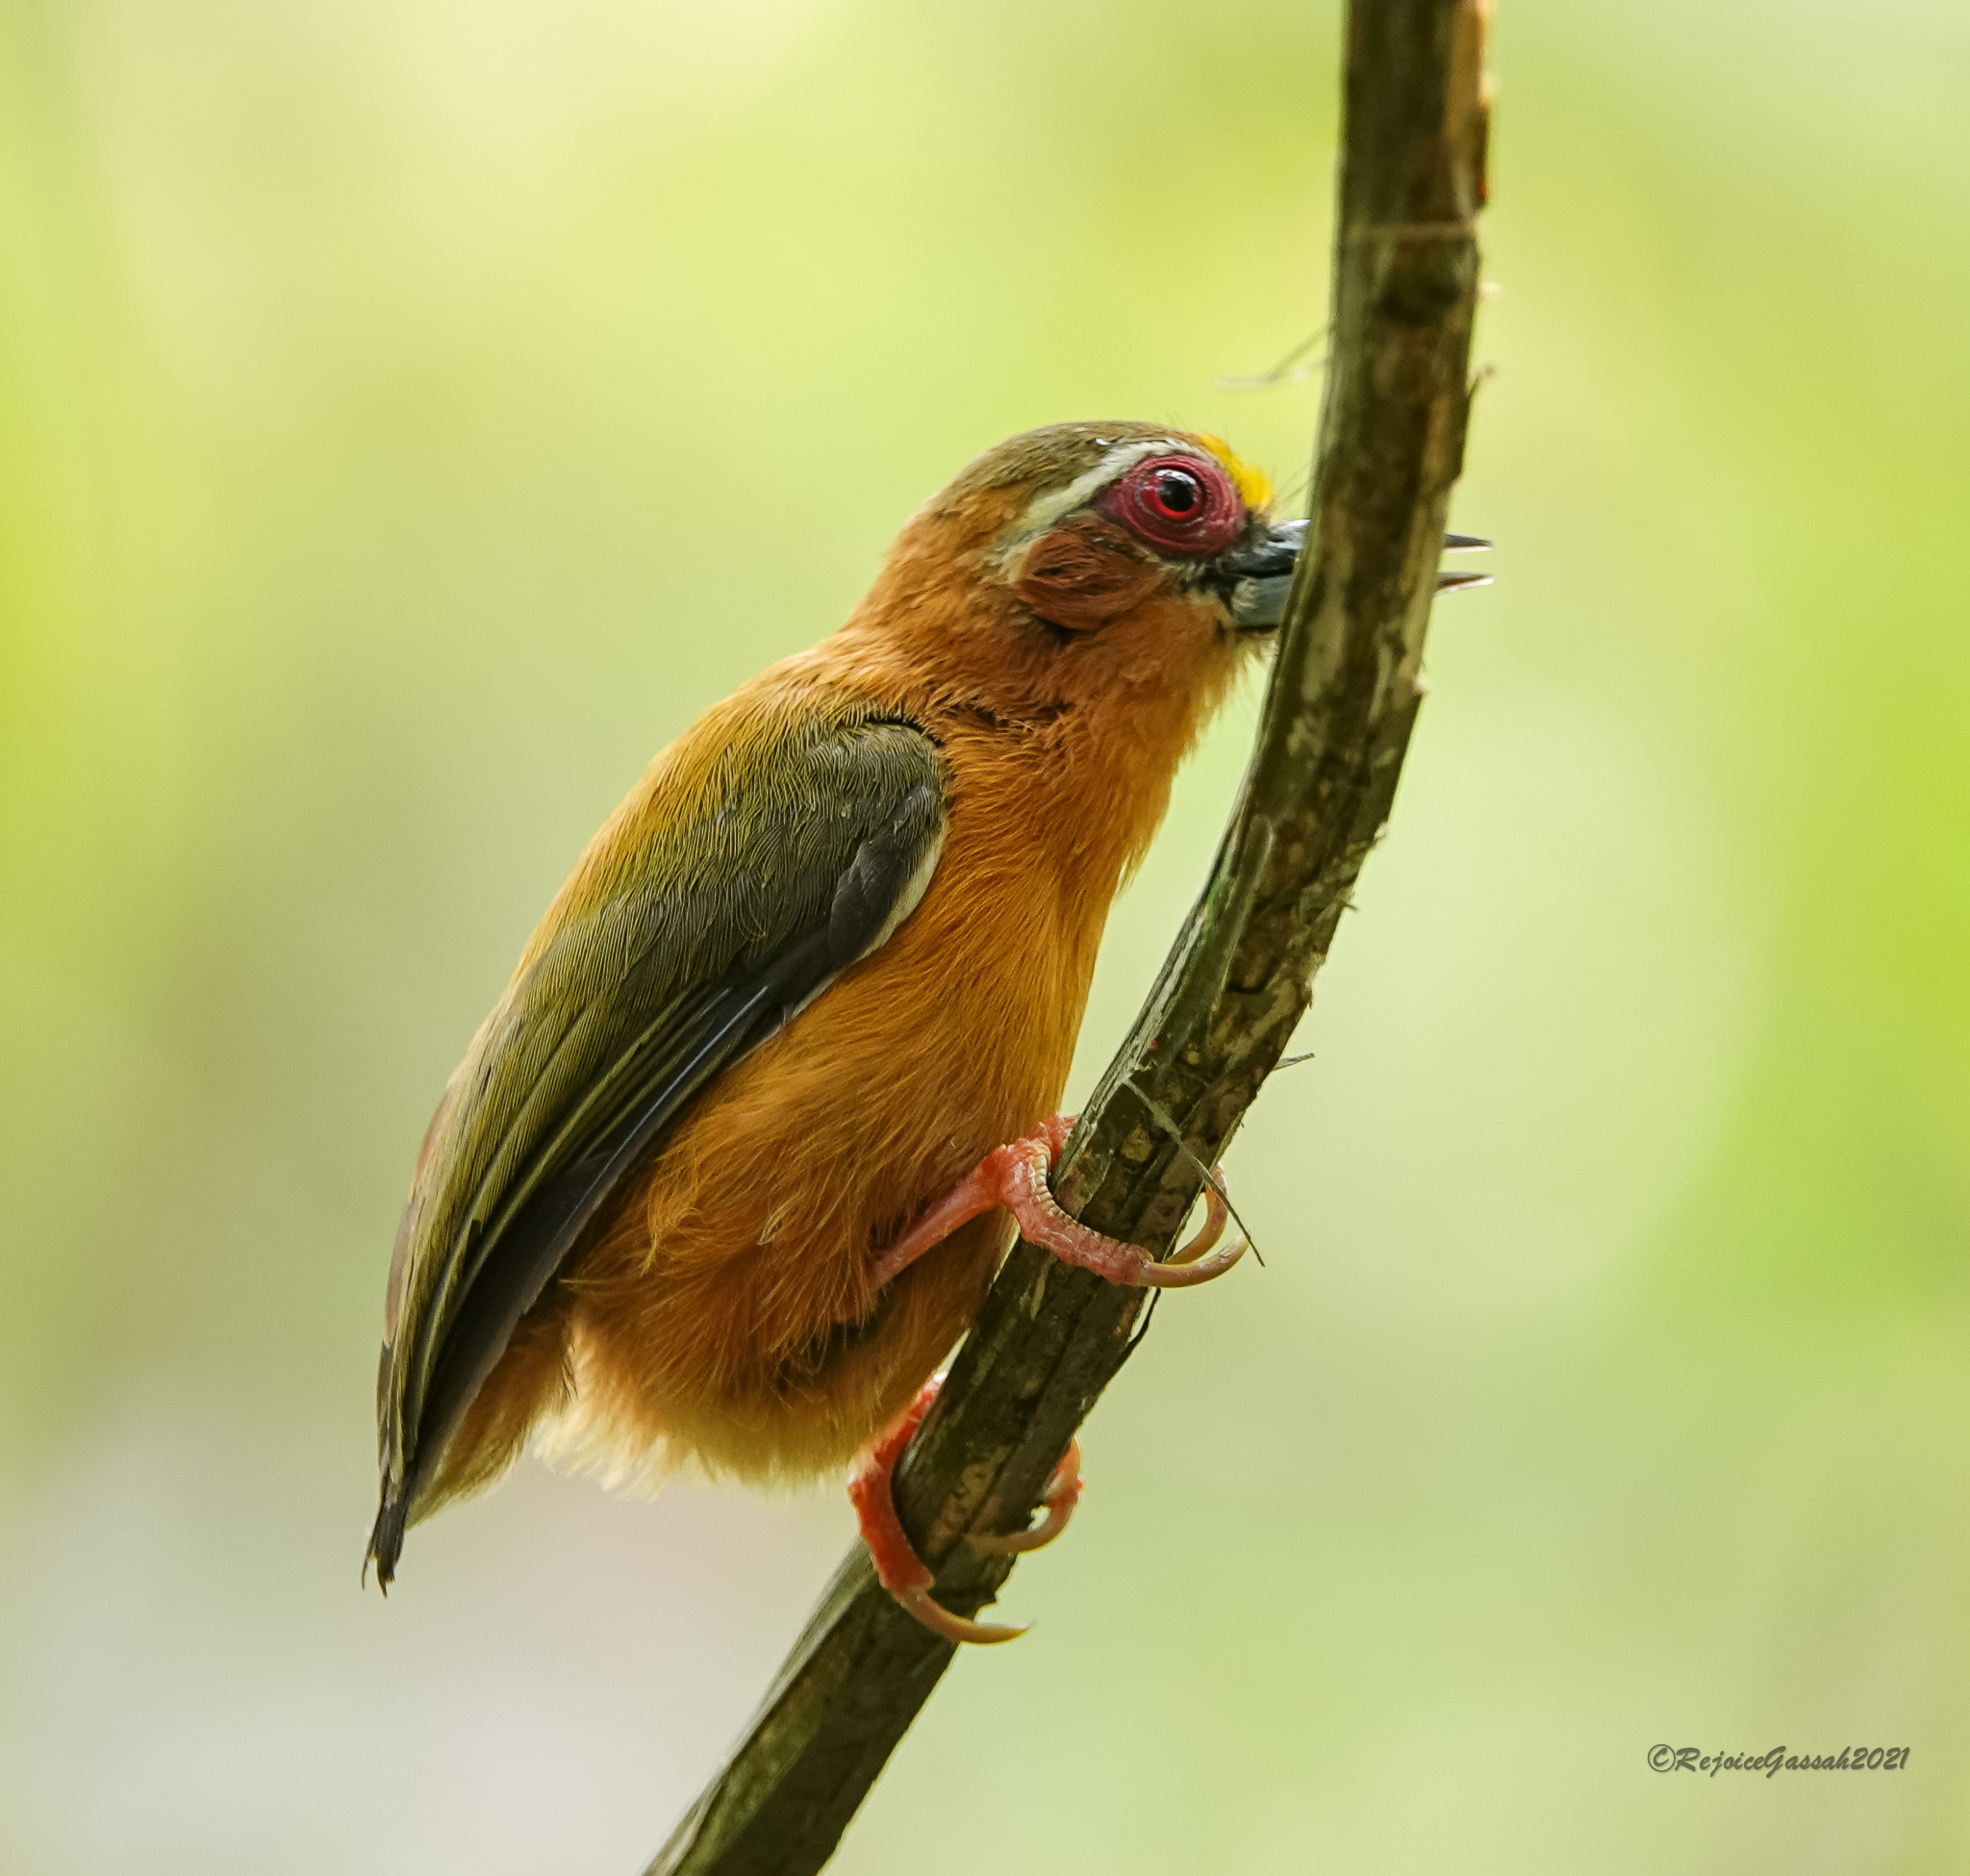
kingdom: Animalia
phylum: Chordata
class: Aves
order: Piciformes
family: Picidae
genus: Sasia
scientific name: Sasia ochracea
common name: White-browed piculet
